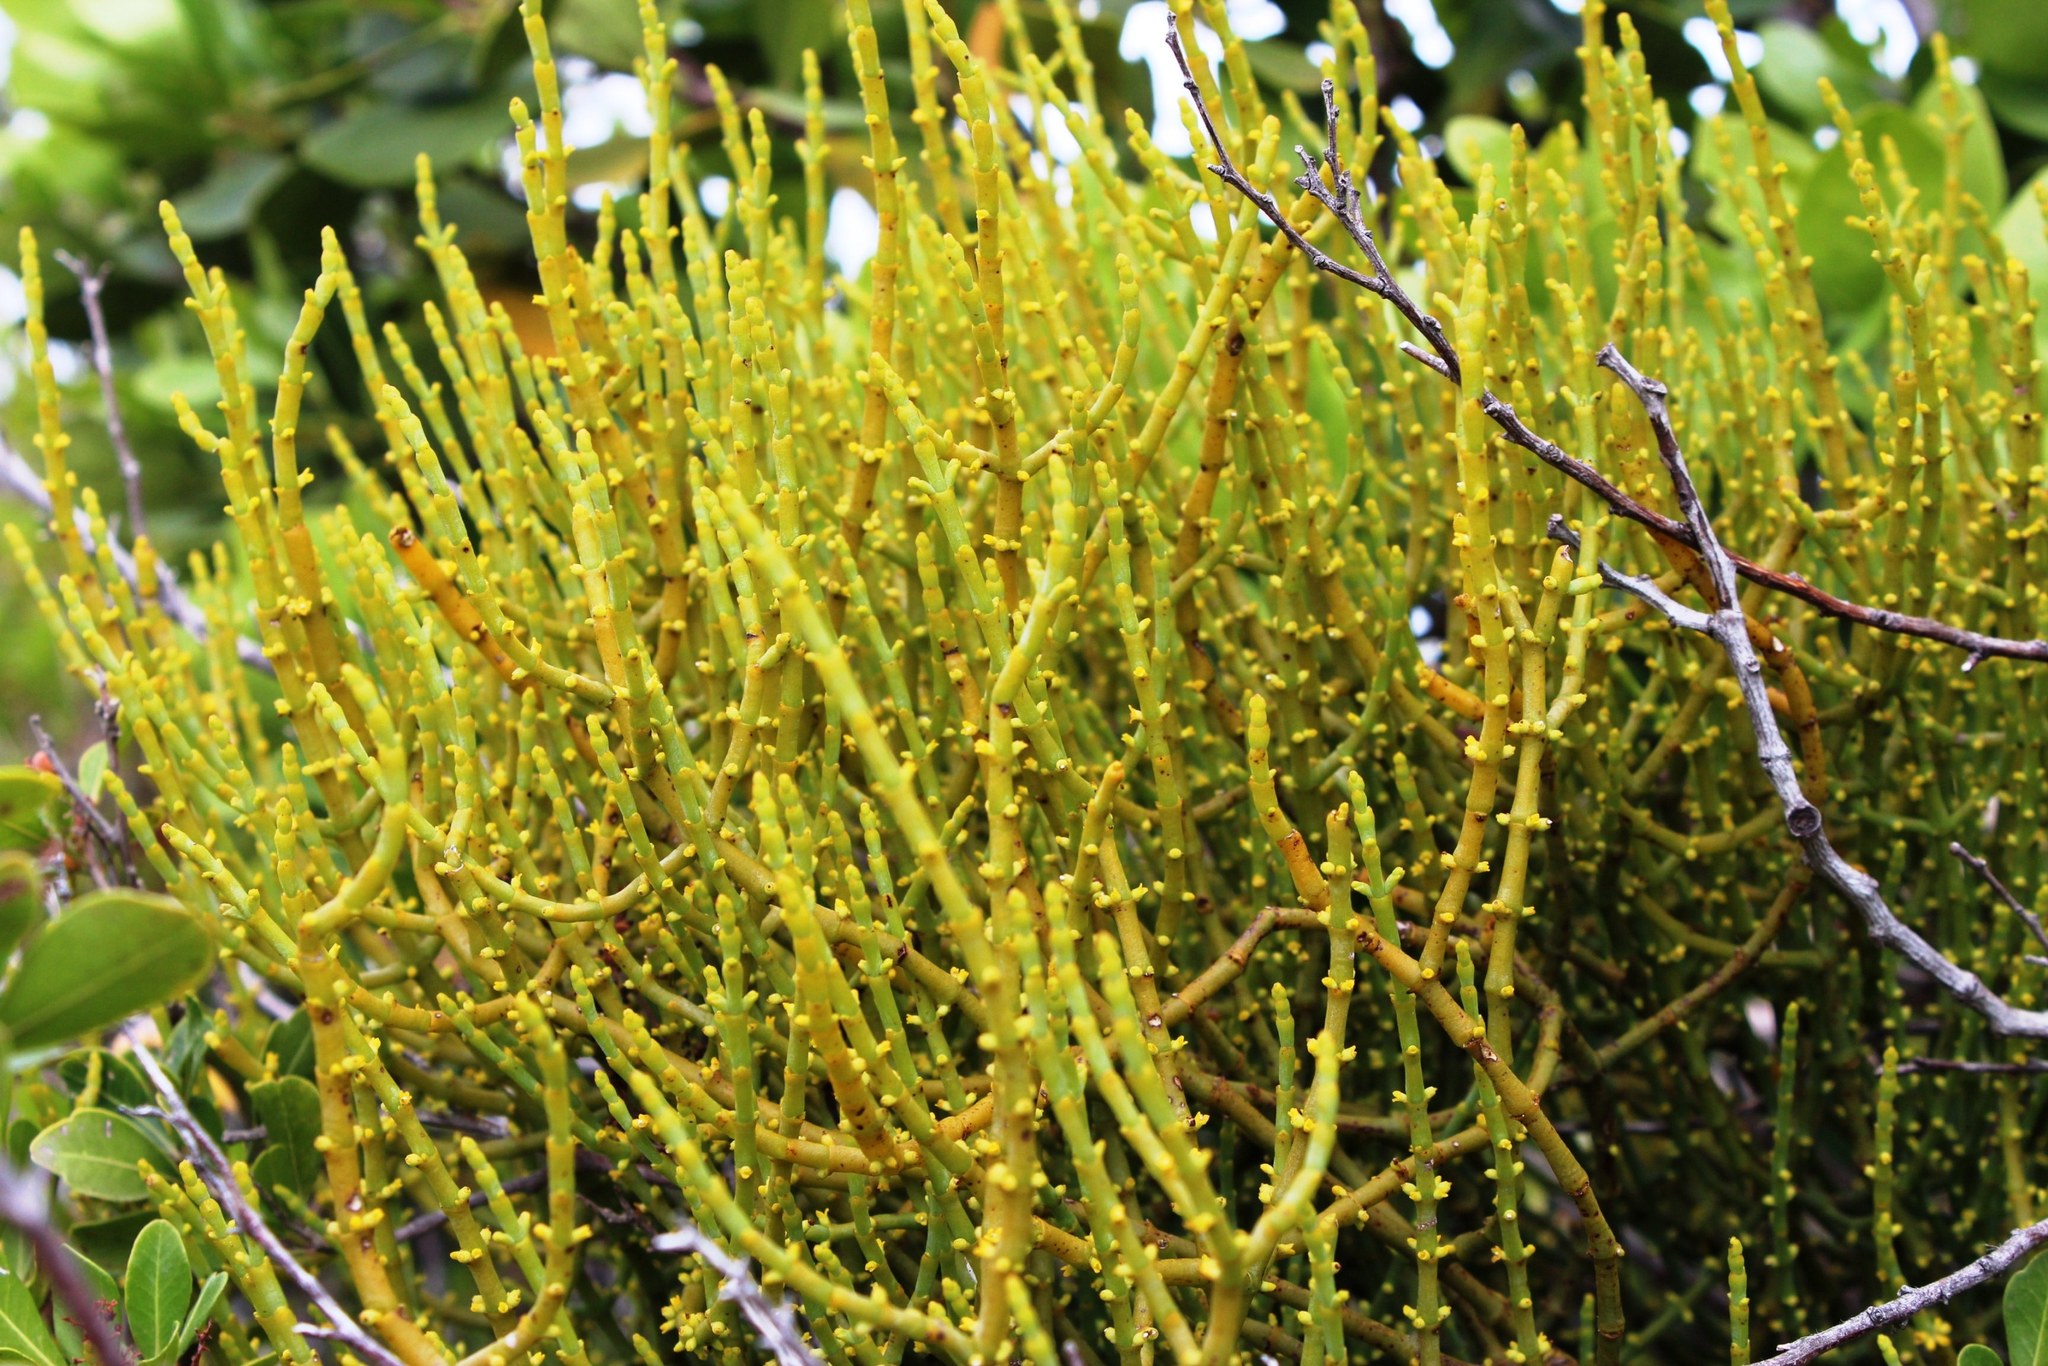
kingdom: Plantae
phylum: Tracheophyta
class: Magnoliopsida
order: Santalales
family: Viscaceae
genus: Viscum
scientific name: Viscum capense
